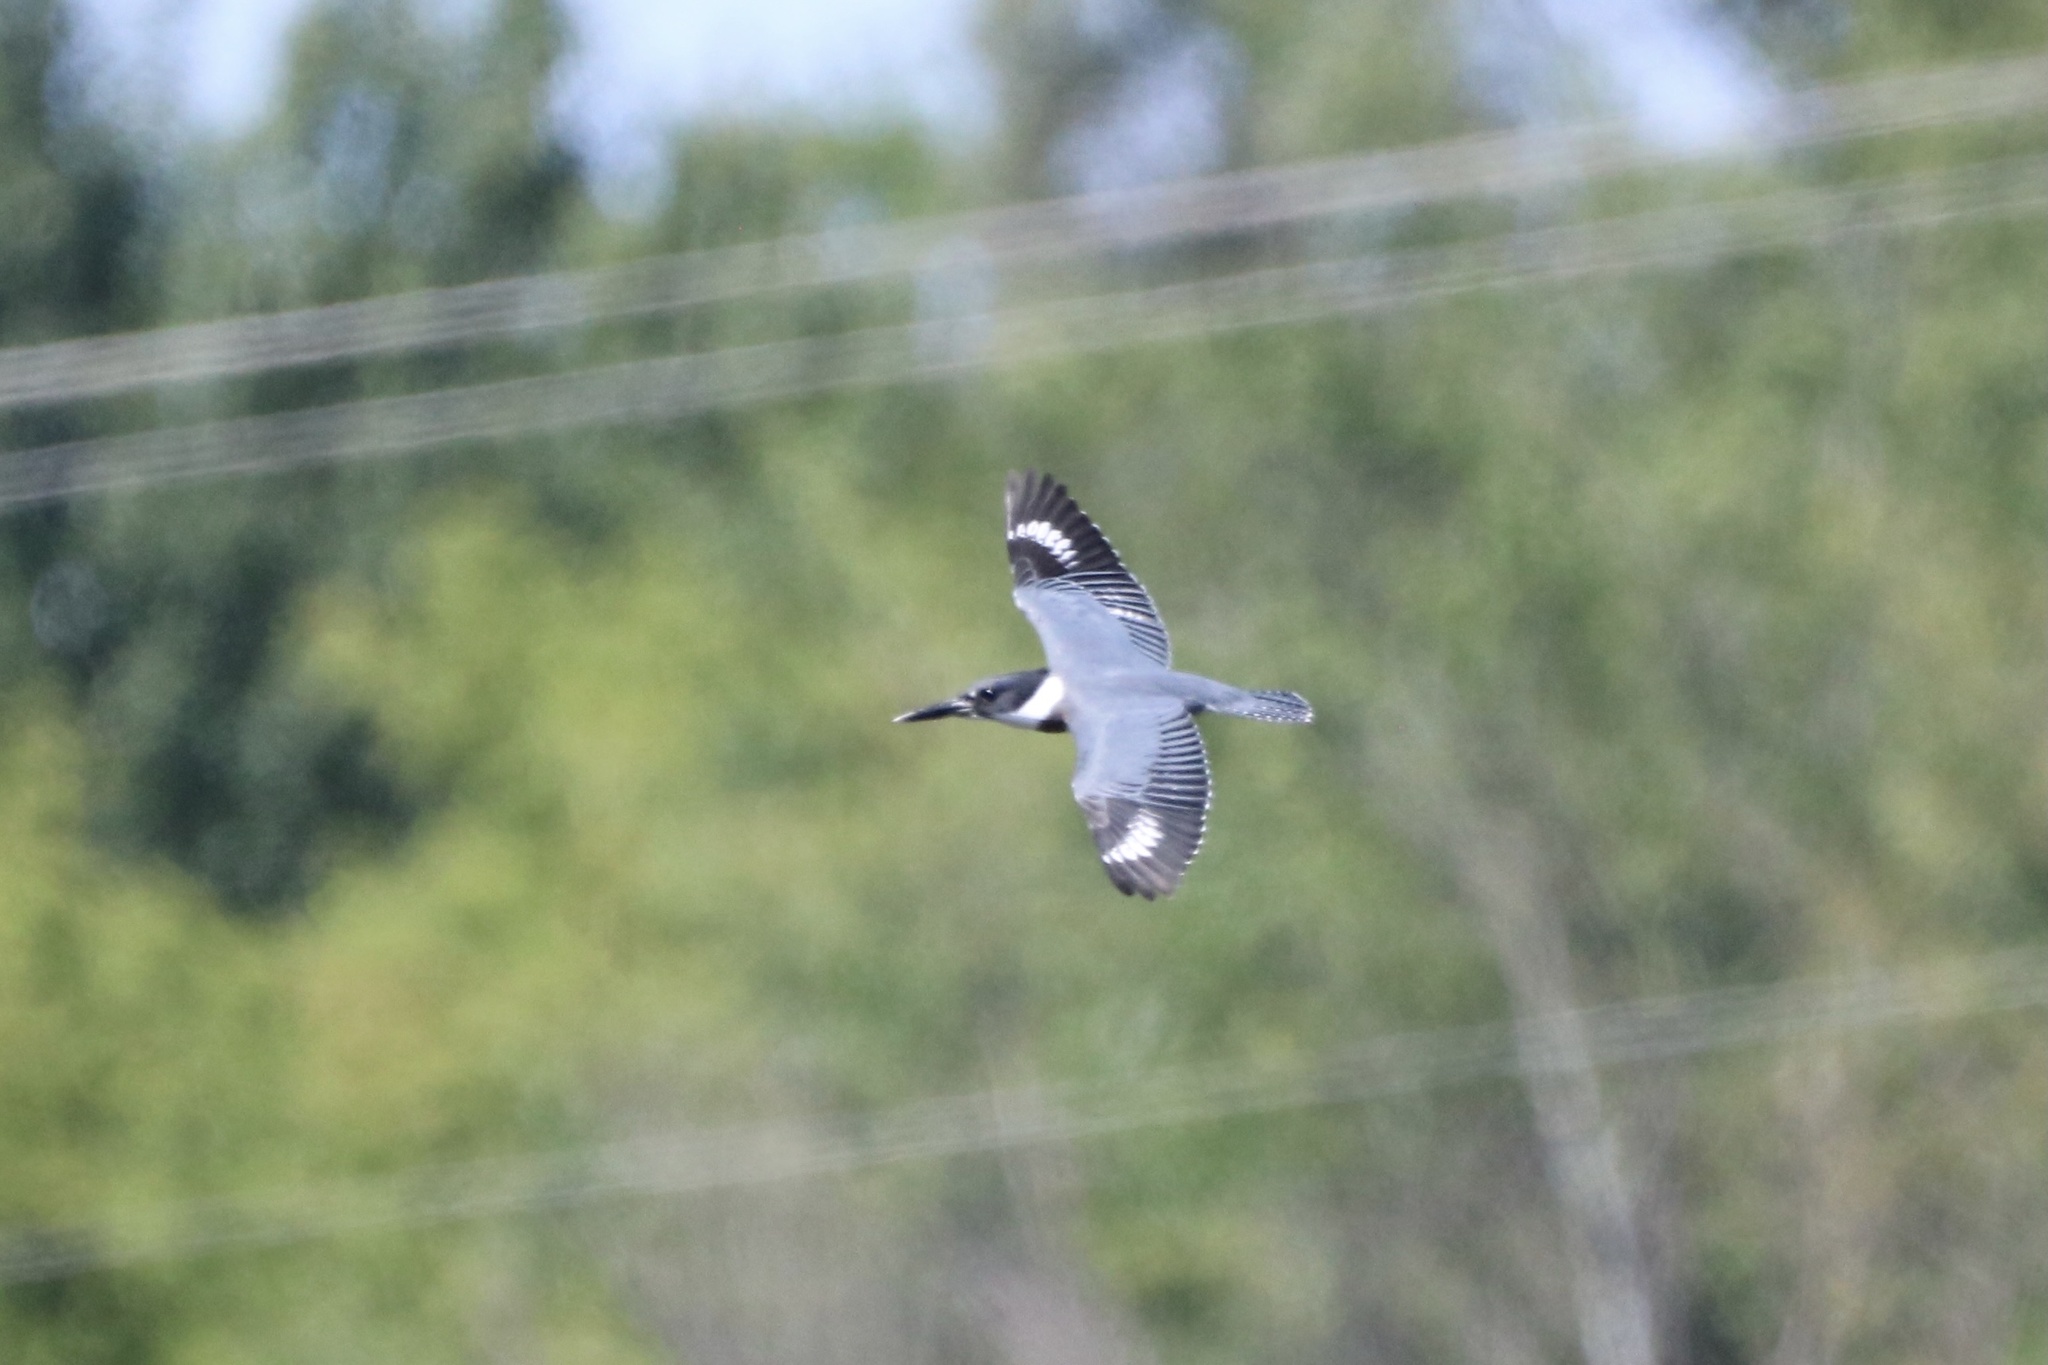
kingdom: Animalia
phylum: Chordata
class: Aves
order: Coraciiformes
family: Alcedinidae
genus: Megaceryle
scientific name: Megaceryle alcyon
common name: Belted kingfisher
